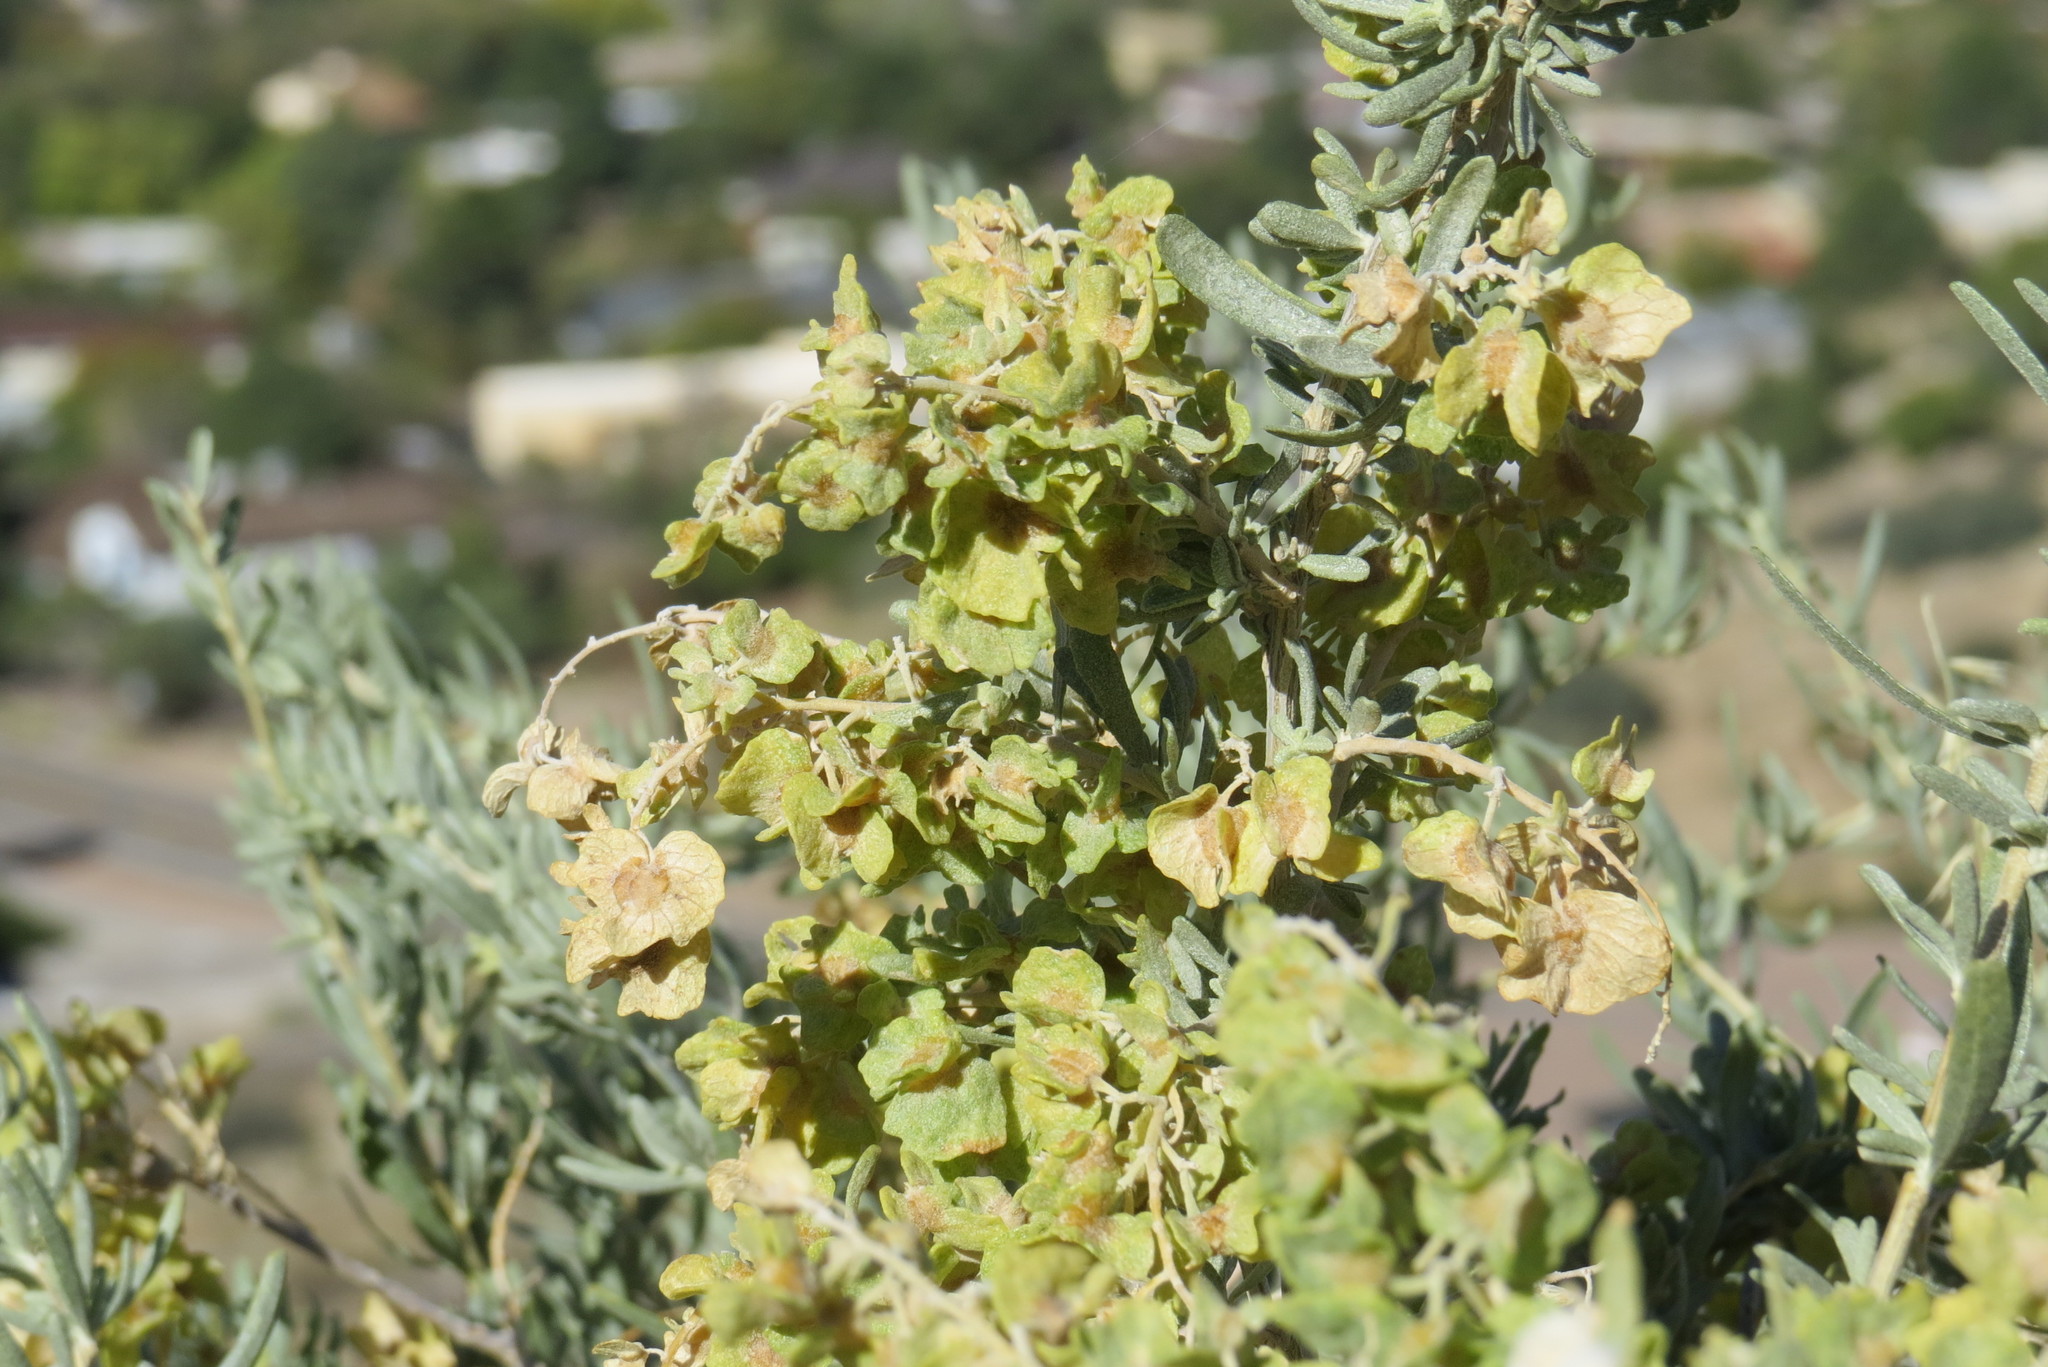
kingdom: Plantae
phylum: Tracheophyta
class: Magnoliopsida
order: Caryophyllales
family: Amaranthaceae
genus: Atriplex
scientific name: Atriplex canescens
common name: Four-wing saltbush
